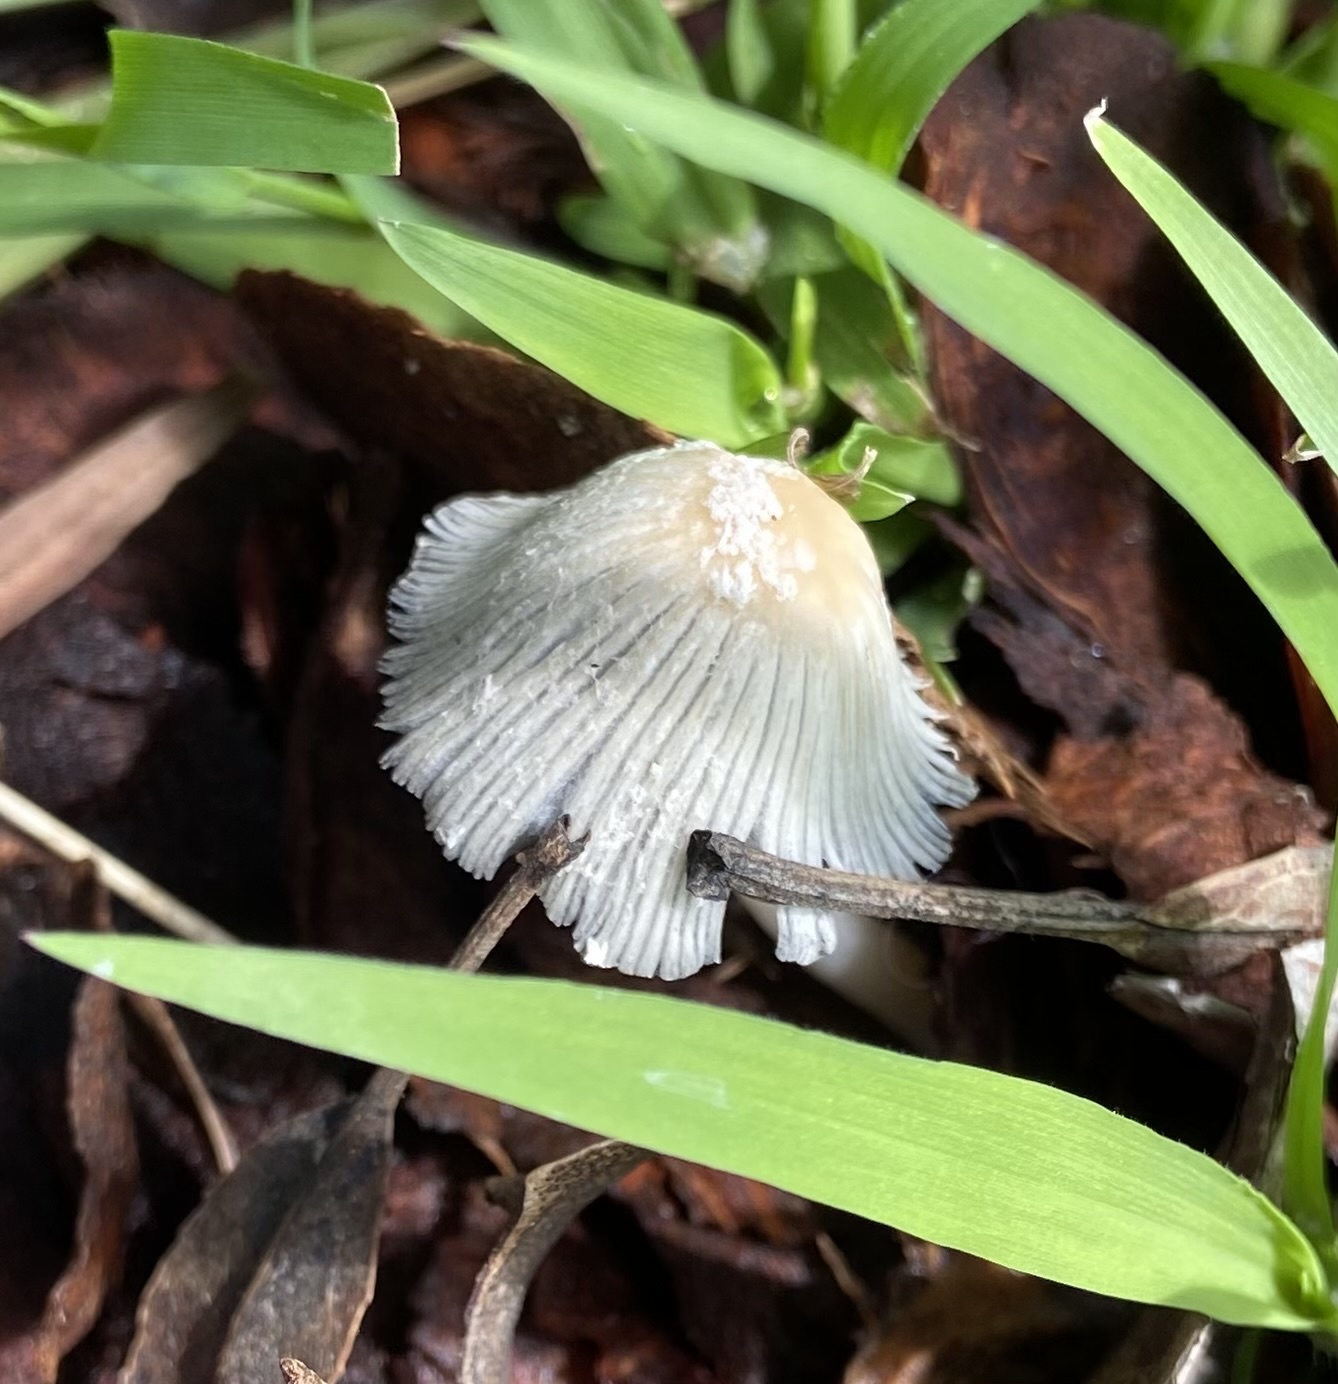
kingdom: Fungi
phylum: Basidiomycota
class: Agaricomycetes
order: Agaricales
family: Psathyrellaceae
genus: Coprinellus
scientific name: Coprinellus flocculosus
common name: Flocculose inkcap
